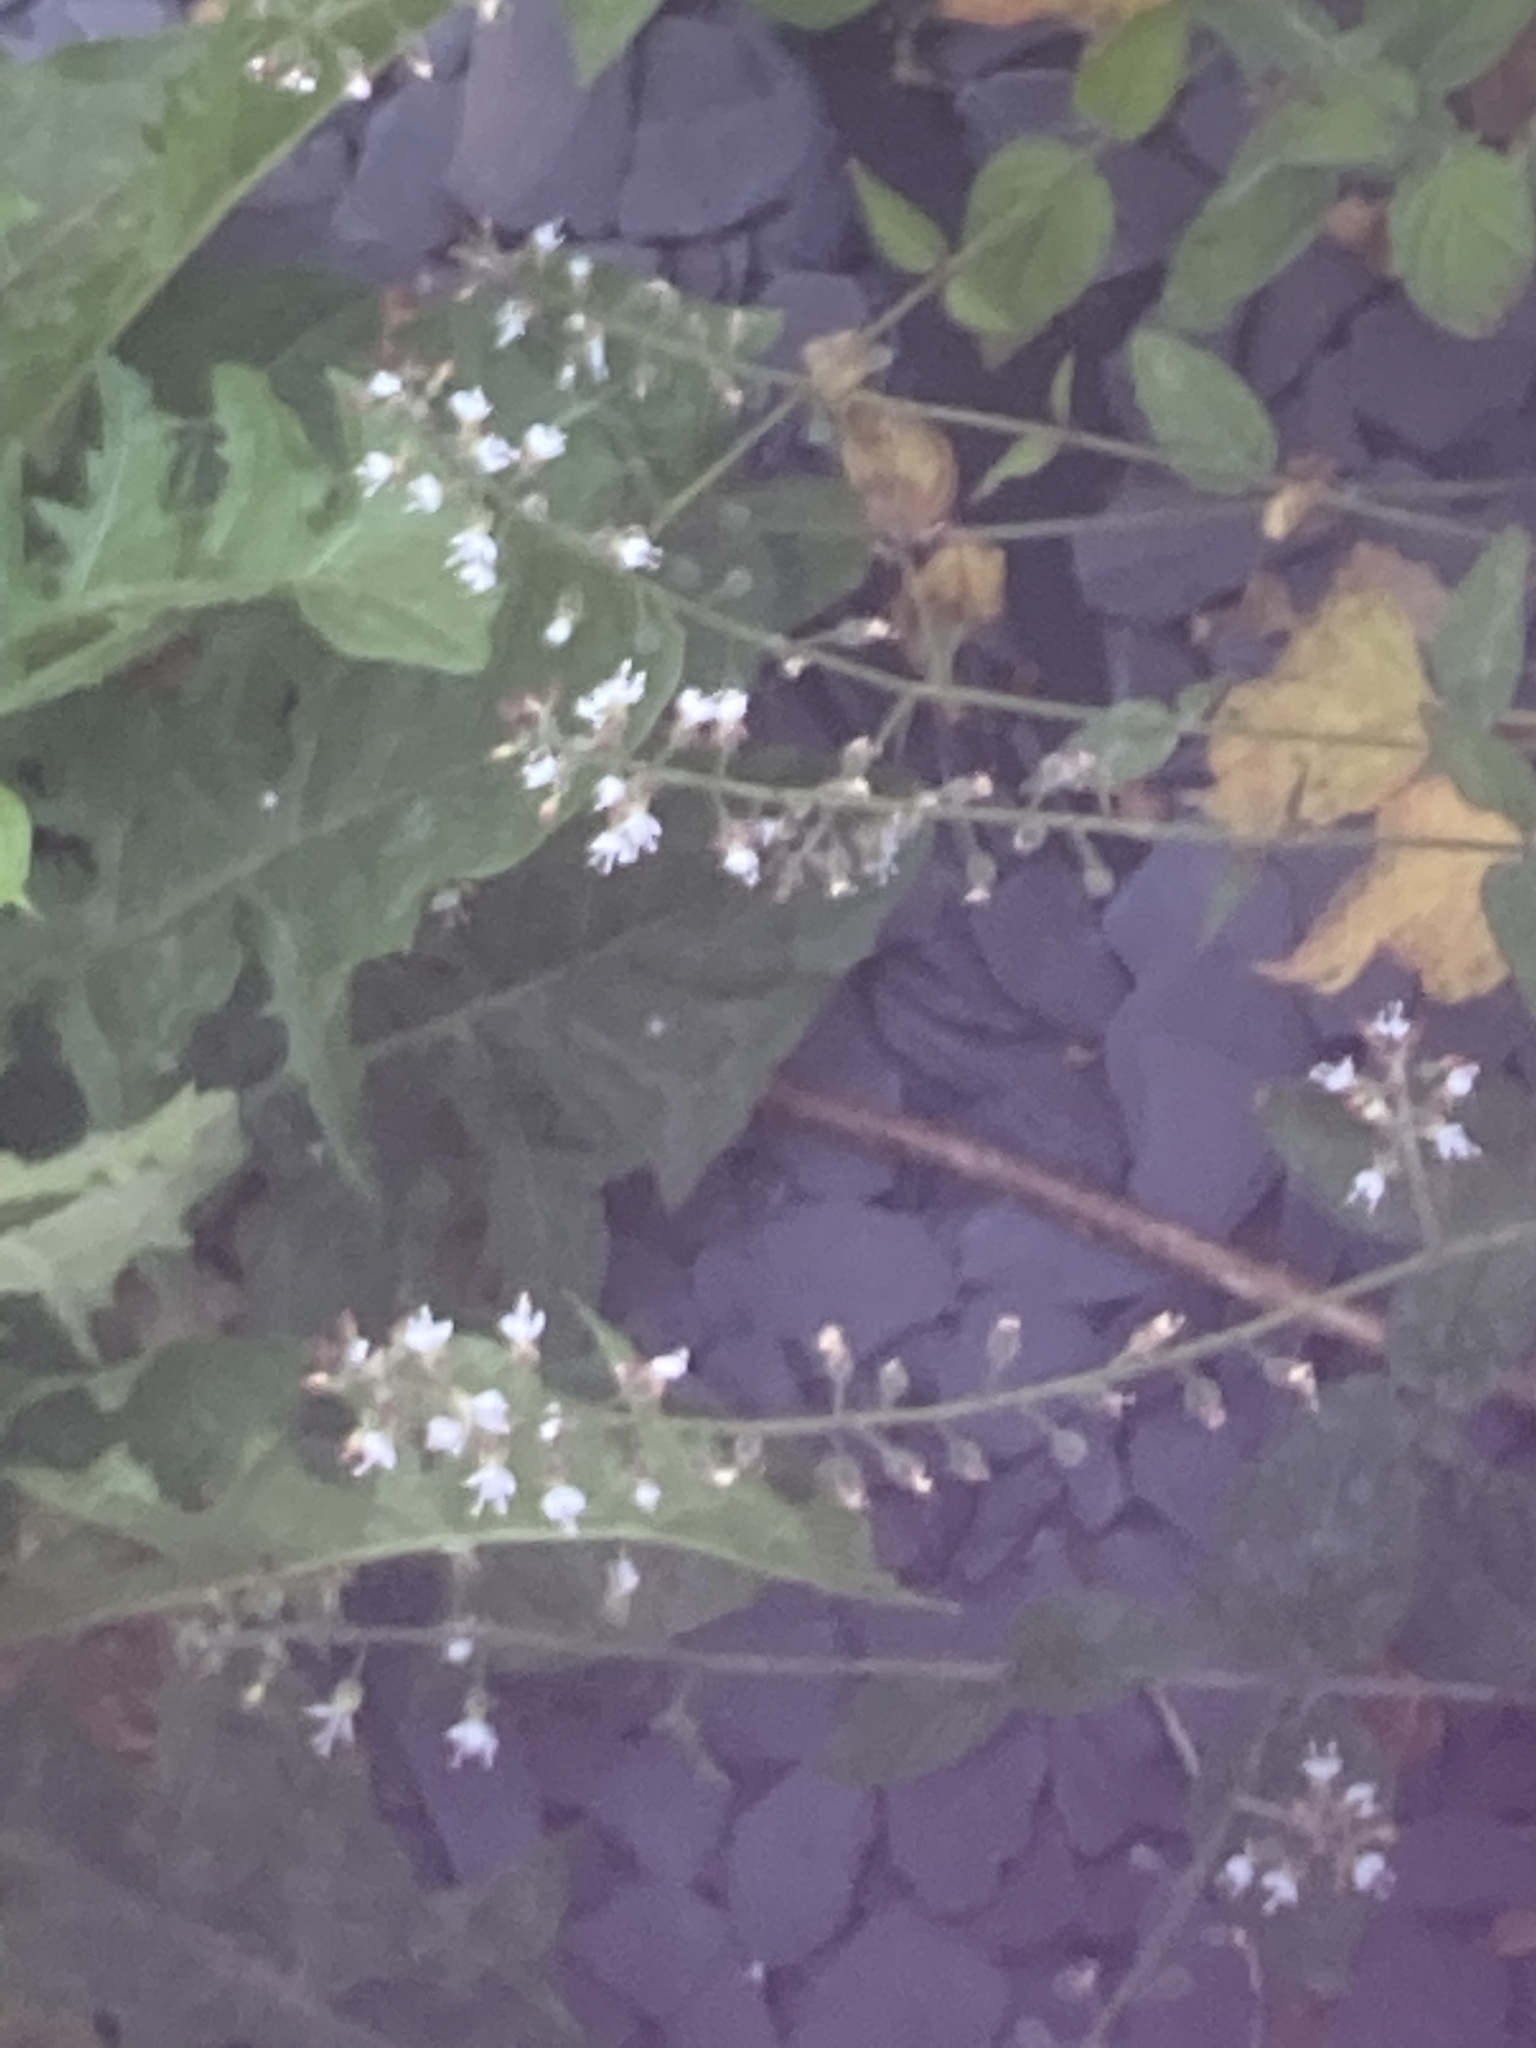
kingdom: Plantae
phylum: Tracheophyta
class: Magnoliopsida
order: Myrtales
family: Onagraceae
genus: Circaea
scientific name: Circaea lutetiana
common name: Enchanter's-nightshade
